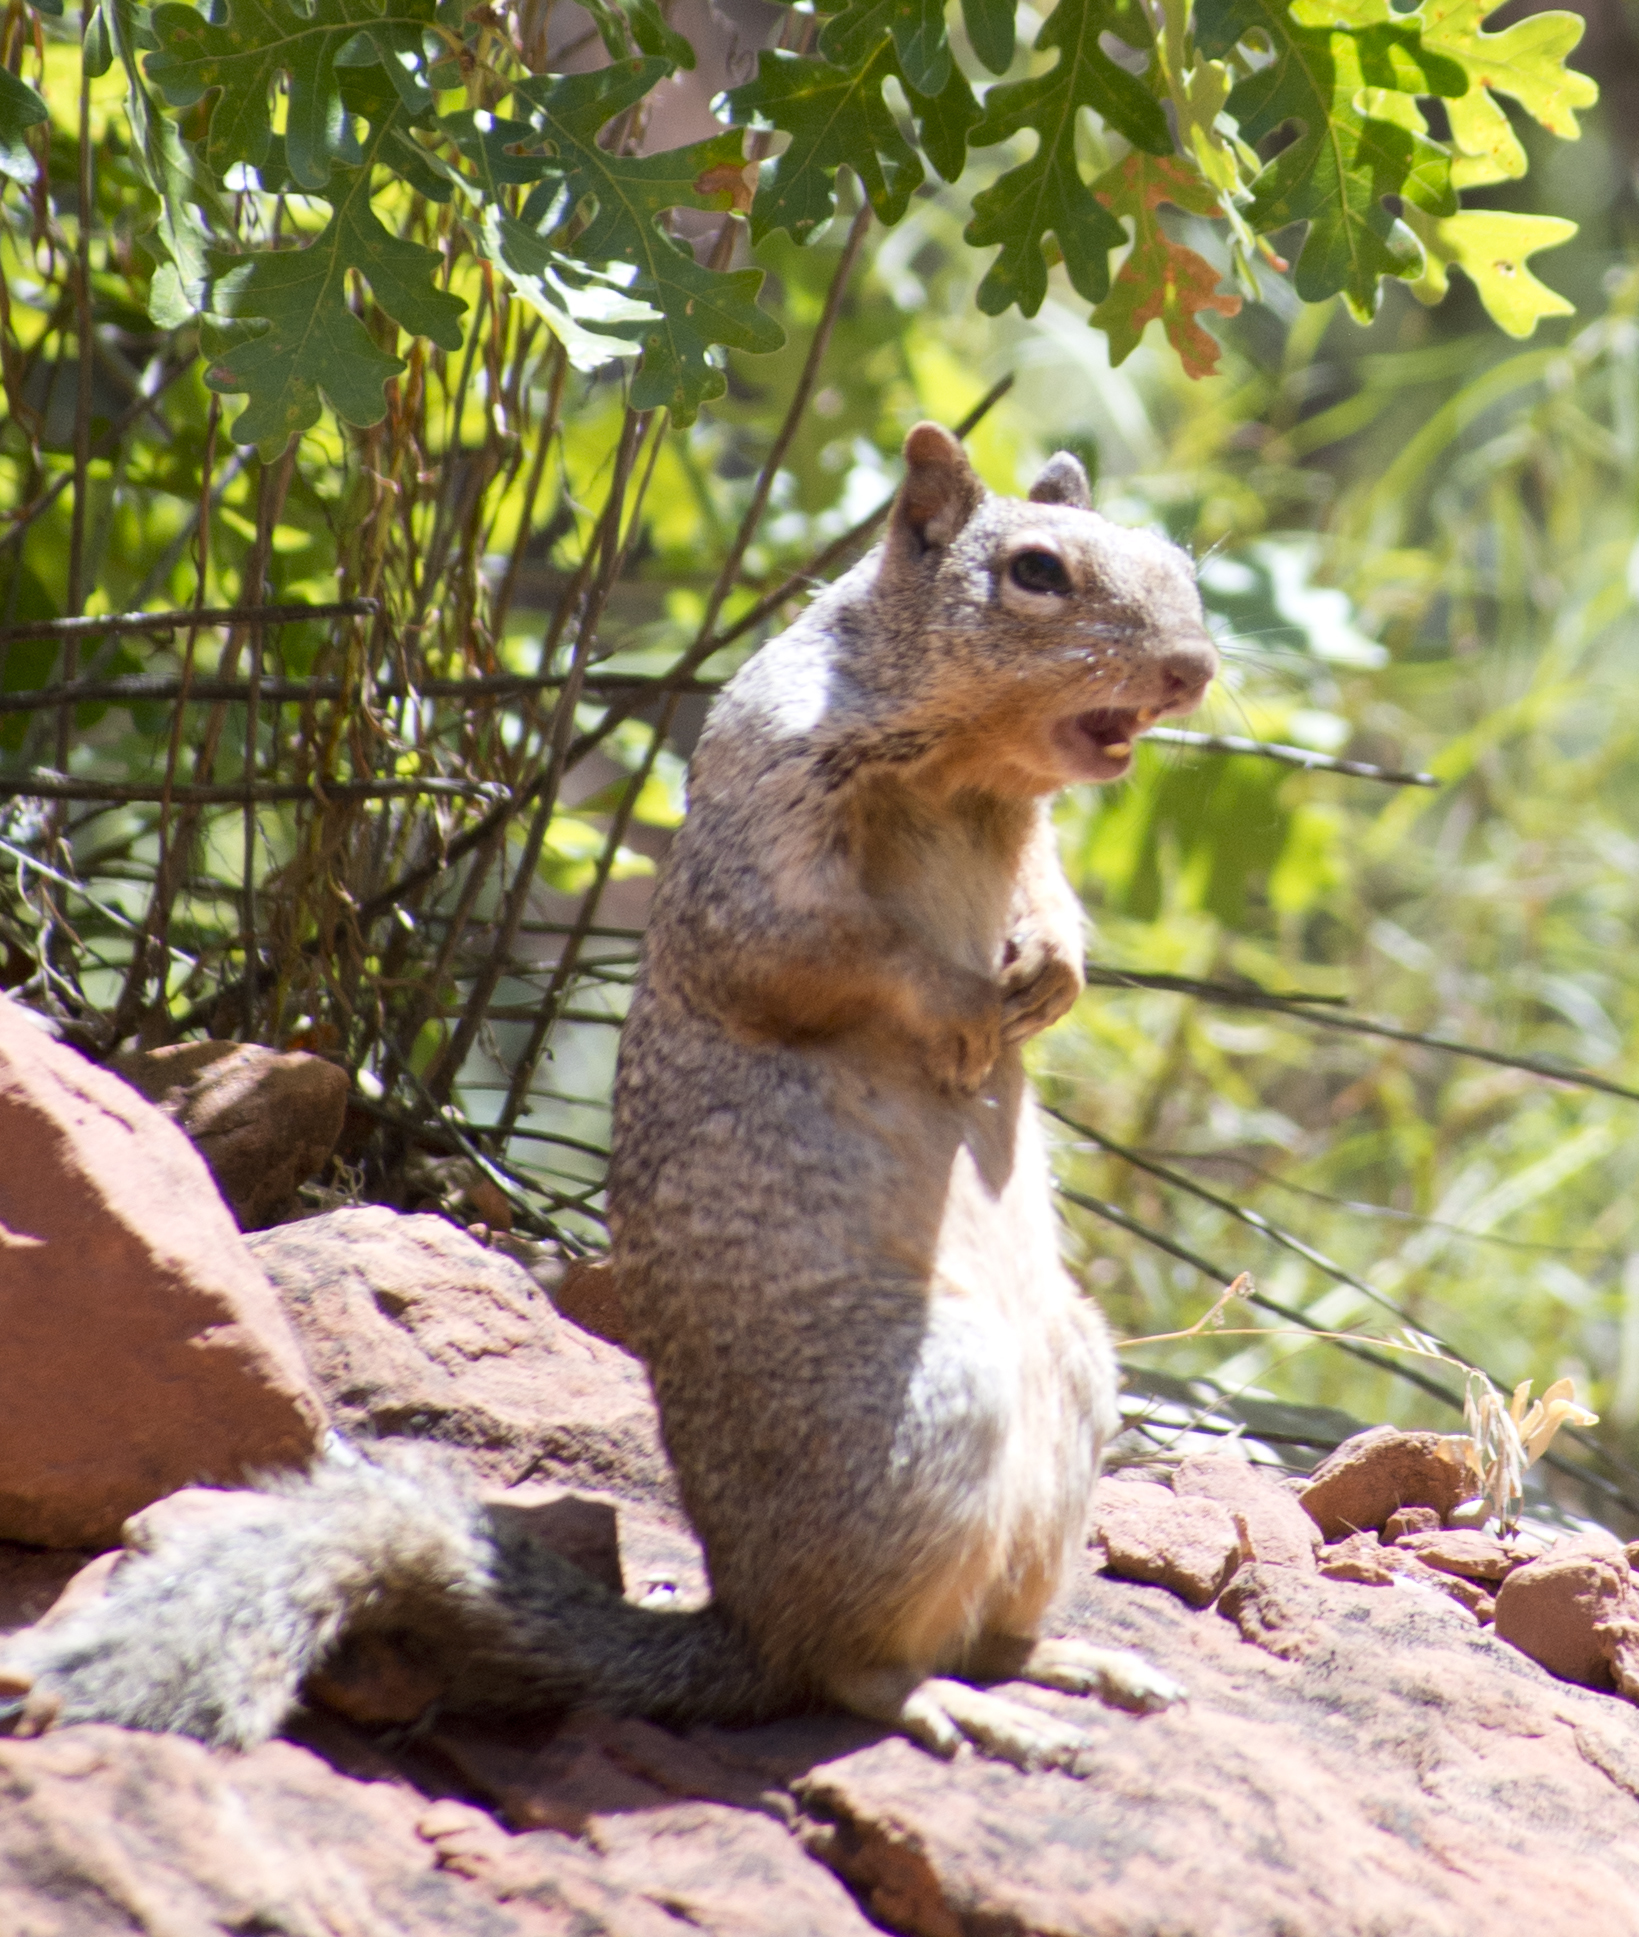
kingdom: Animalia
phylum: Chordata
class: Mammalia
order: Rodentia
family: Sciuridae
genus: Otospermophilus
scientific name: Otospermophilus variegatus
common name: Rock squirrel
